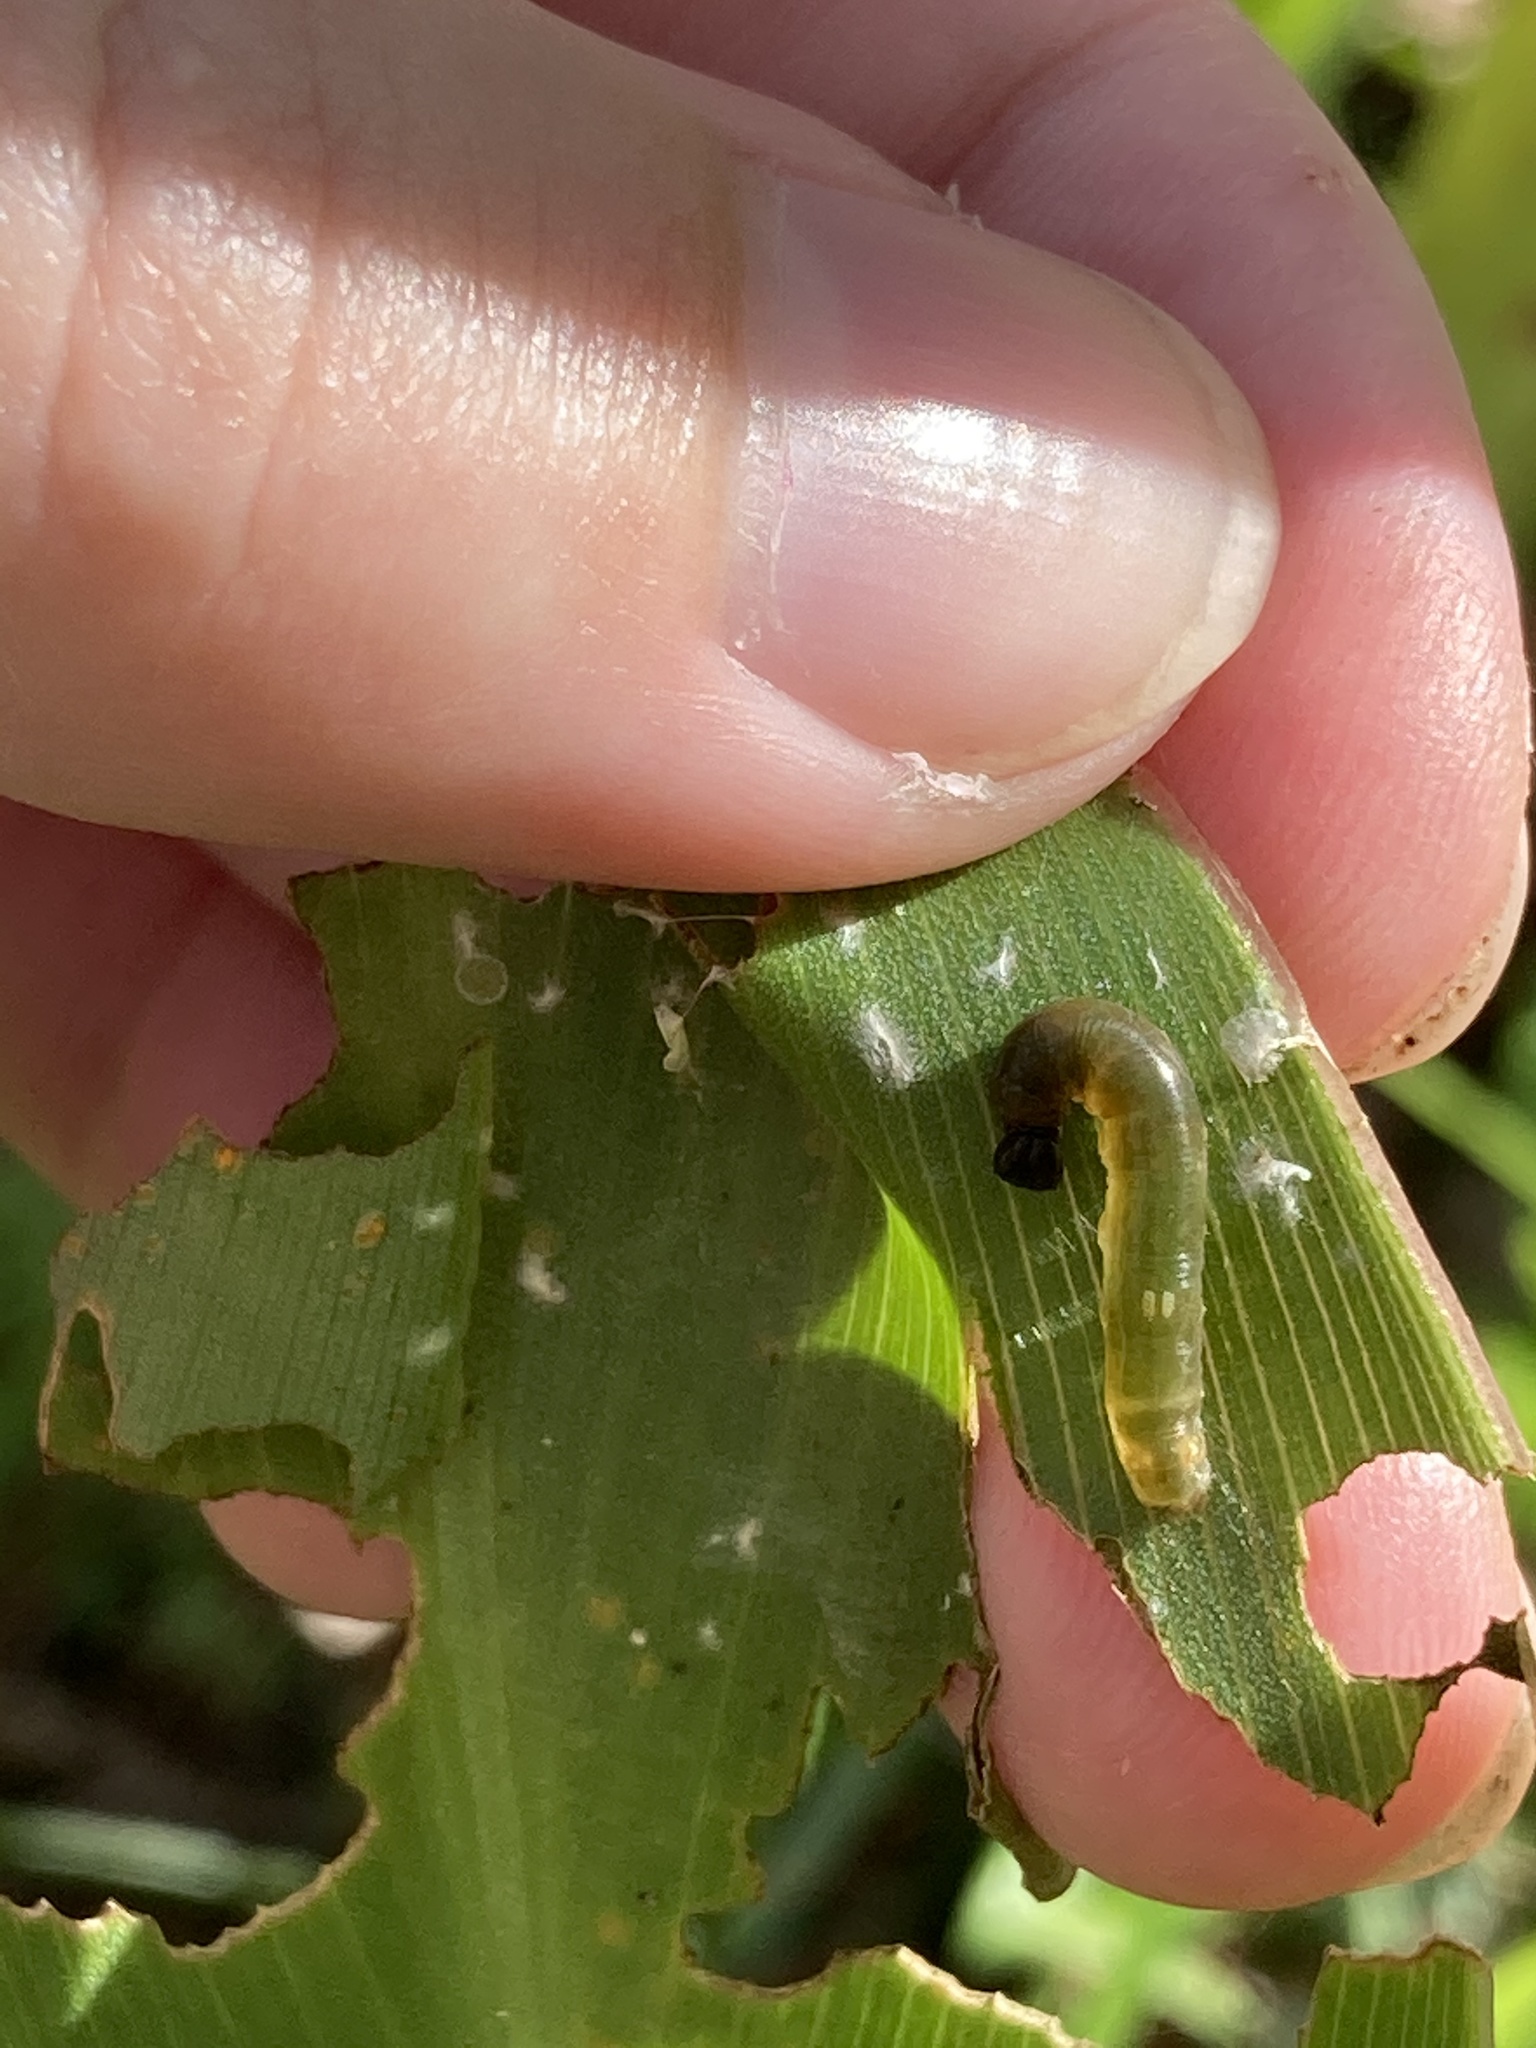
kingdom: Animalia
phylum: Arthropoda
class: Insecta
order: Lepidoptera
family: Hesperiidae
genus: Calpodes
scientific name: Calpodes ethlius
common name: Brazilian skipper
